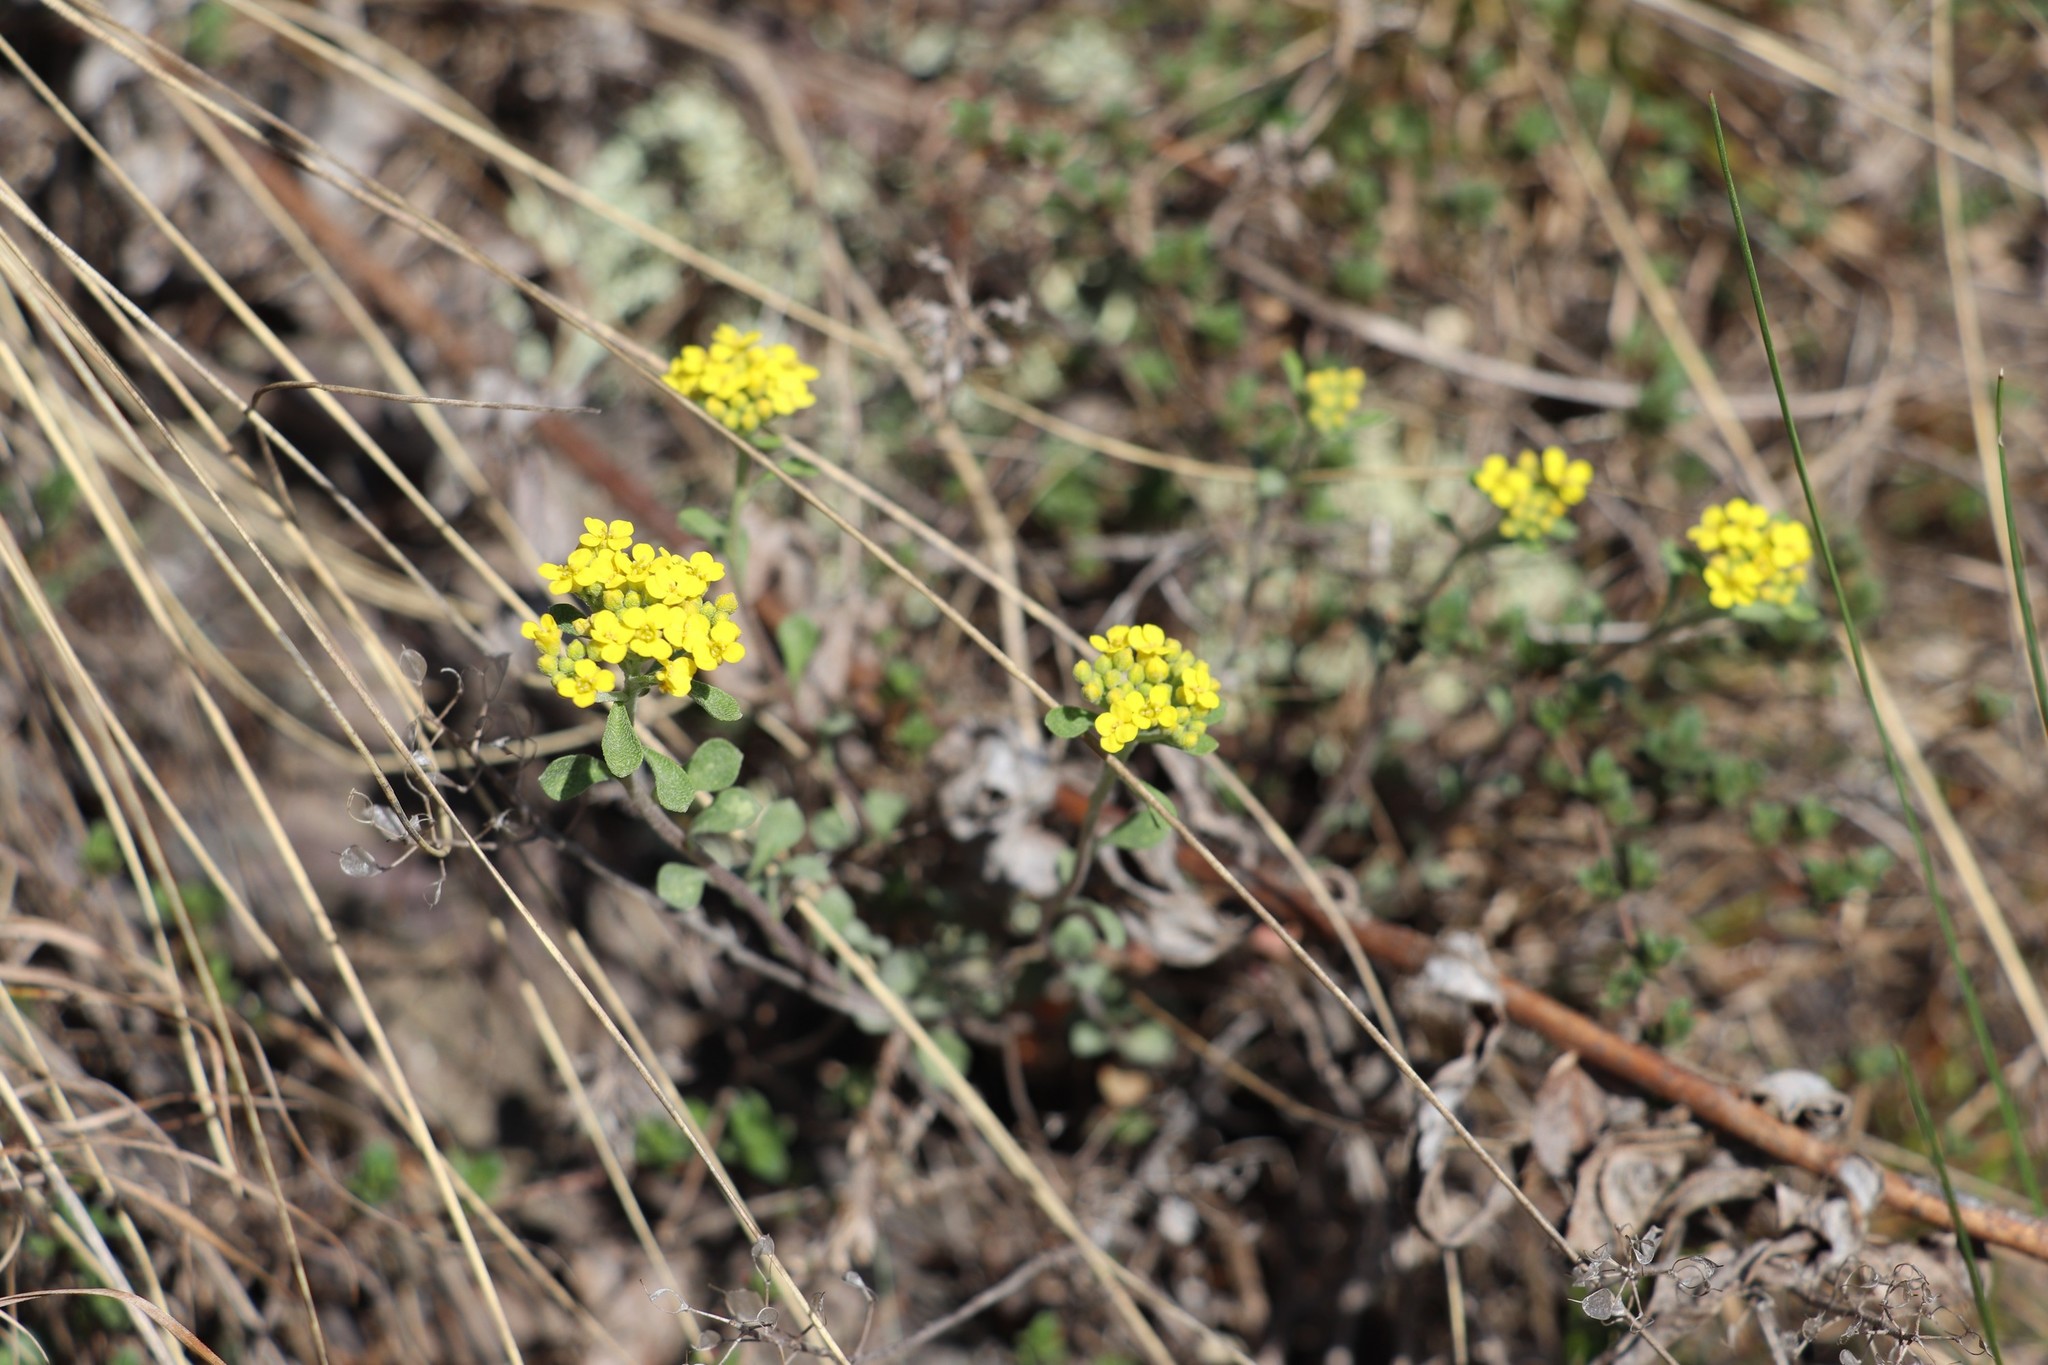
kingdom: Plantae
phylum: Tracheophyta
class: Magnoliopsida
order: Brassicales
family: Brassicaceae
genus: Odontarrhena
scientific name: Odontarrhena obovata
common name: American alyssum
